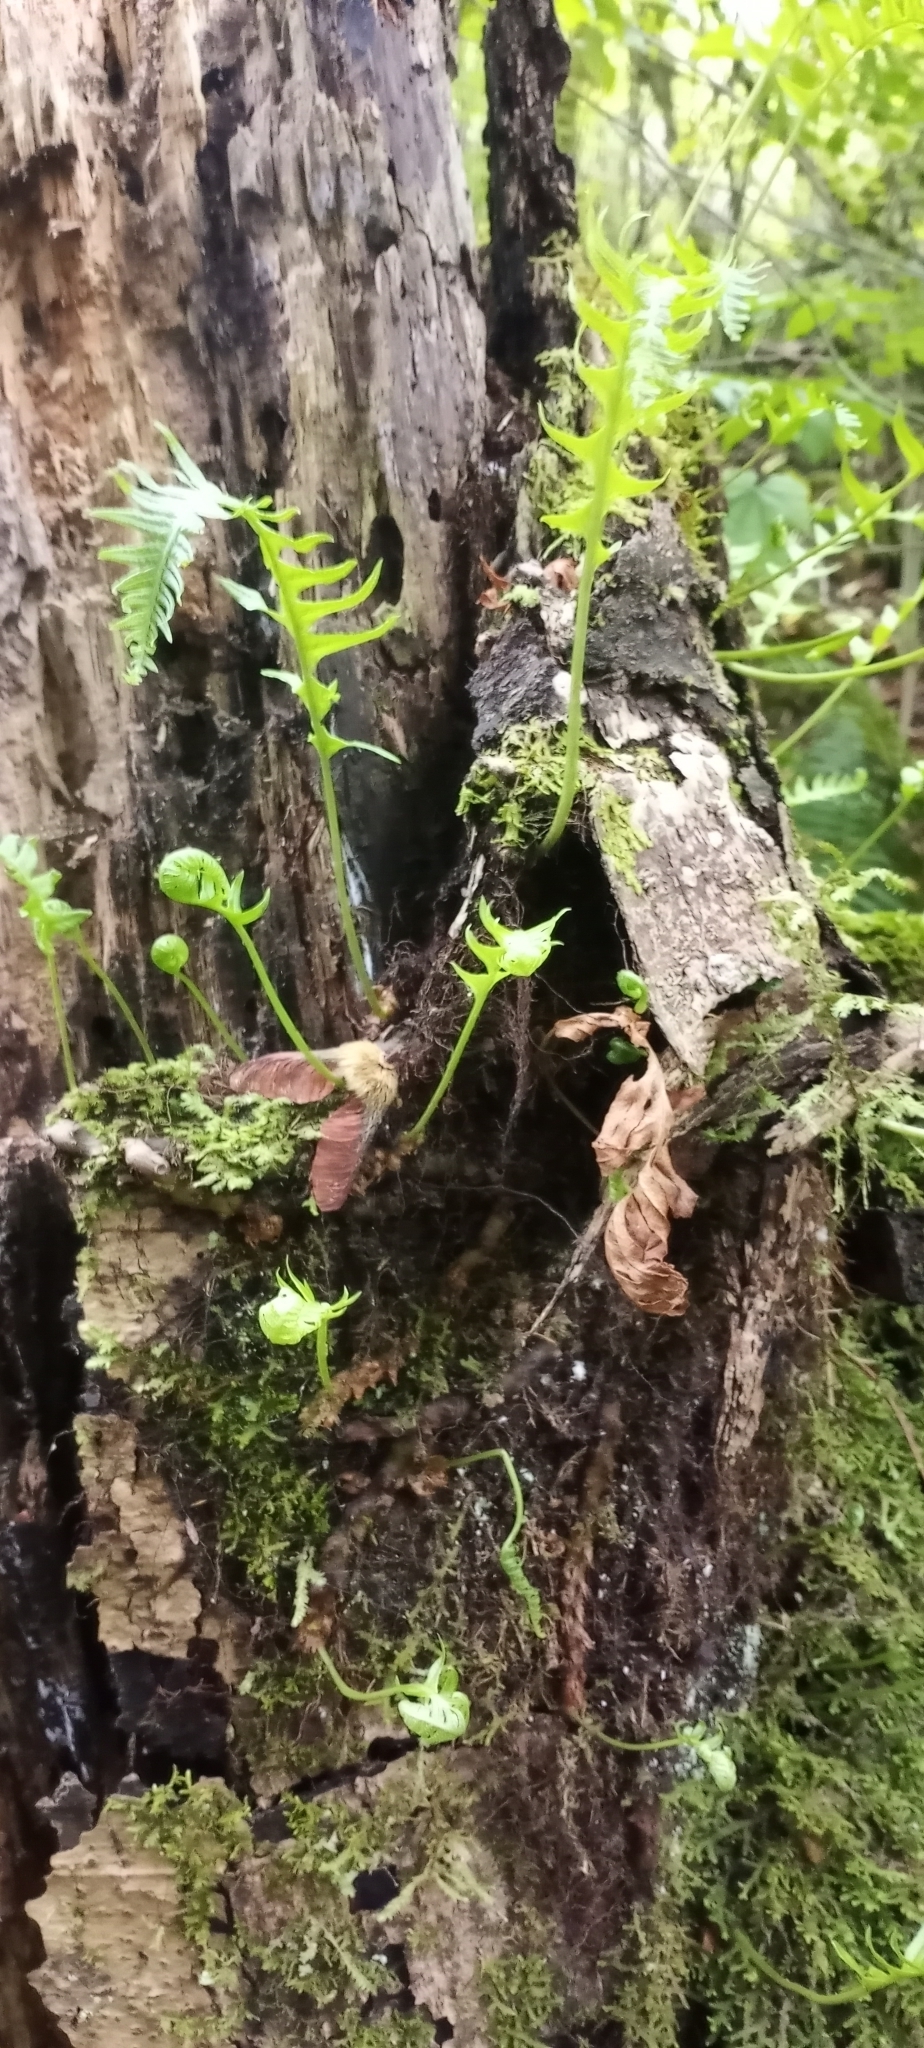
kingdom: Plantae
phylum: Tracheophyta
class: Polypodiopsida
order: Polypodiales
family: Polypodiaceae
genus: Polypodium
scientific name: Polypodium glycyrrhiza
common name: Licorice fern
